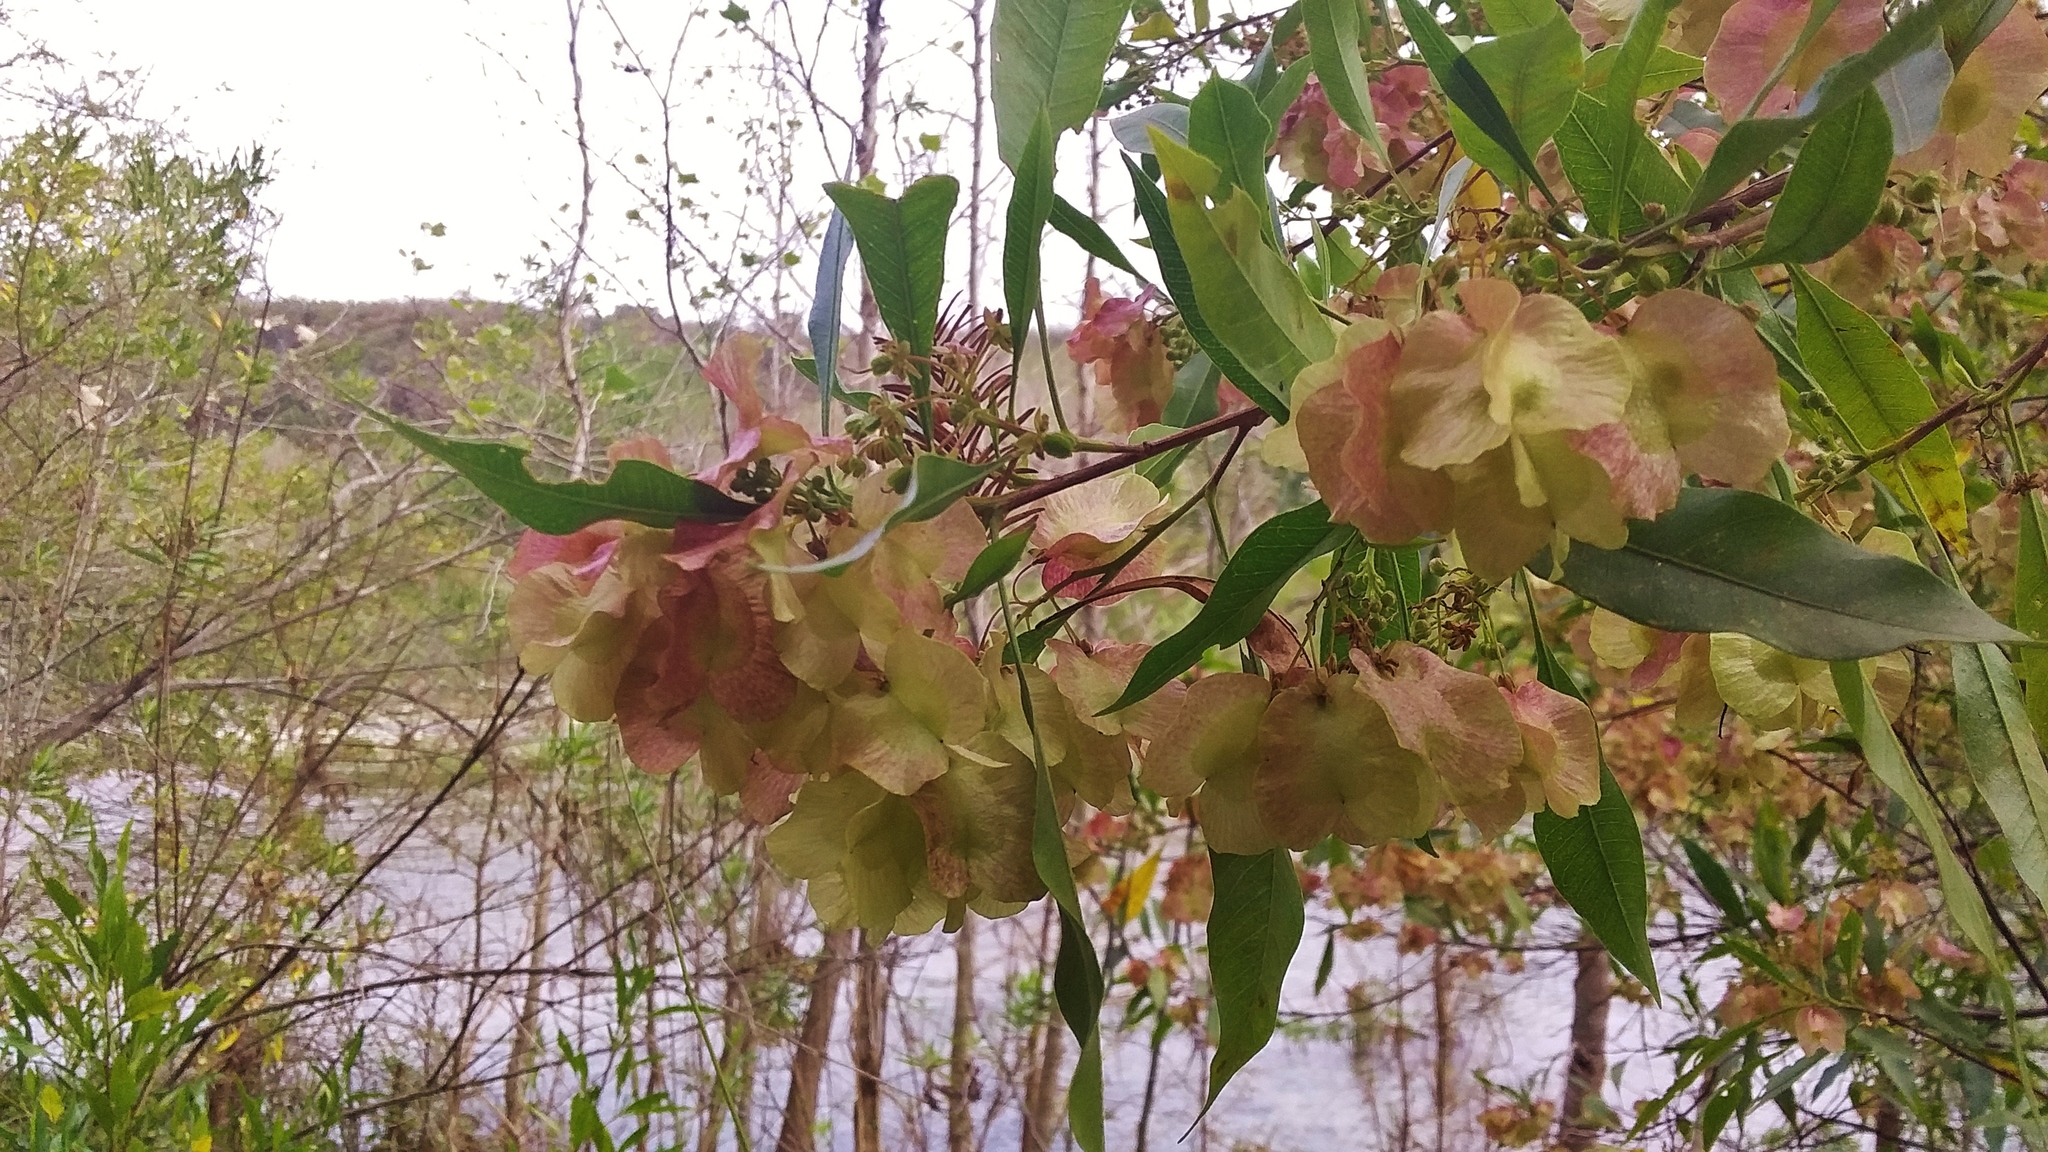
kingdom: Plantae
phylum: Tracheophyta
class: Magnoliopsida
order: Sapindales
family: Sapindaceae
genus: Dodonaea
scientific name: Dodonaea viscosa
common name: Hopbush
